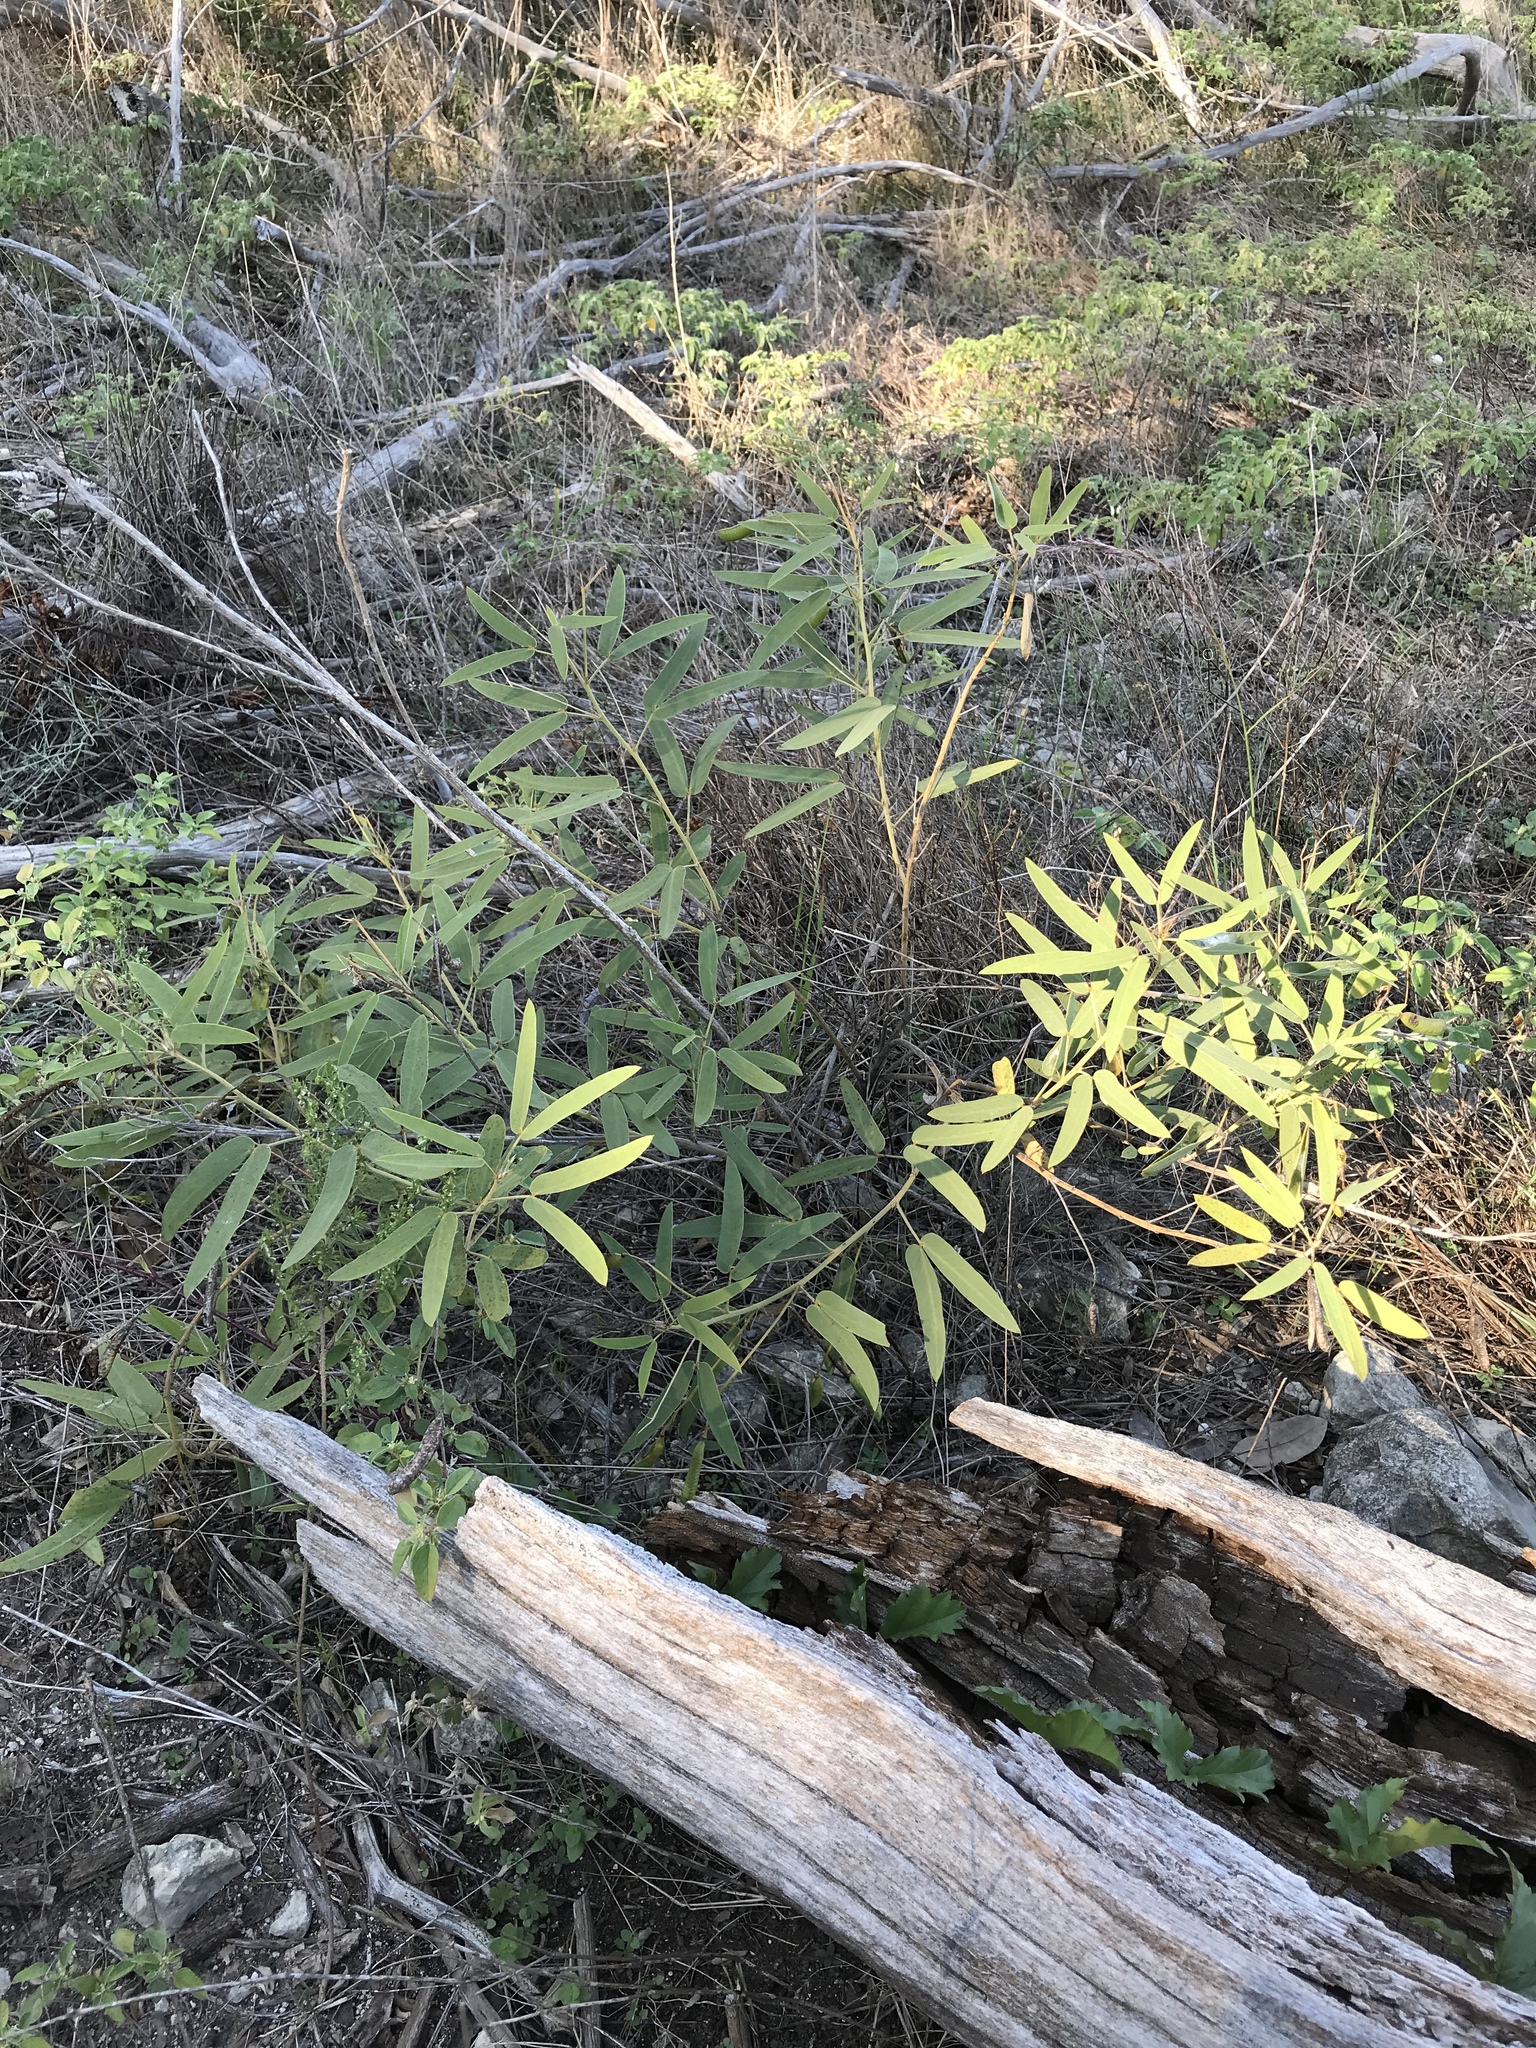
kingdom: Plantae
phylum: Tracheophyta
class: Magnoliopsida
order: Fabales
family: Fabaceae
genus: Senna
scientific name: Senna roemeriana
